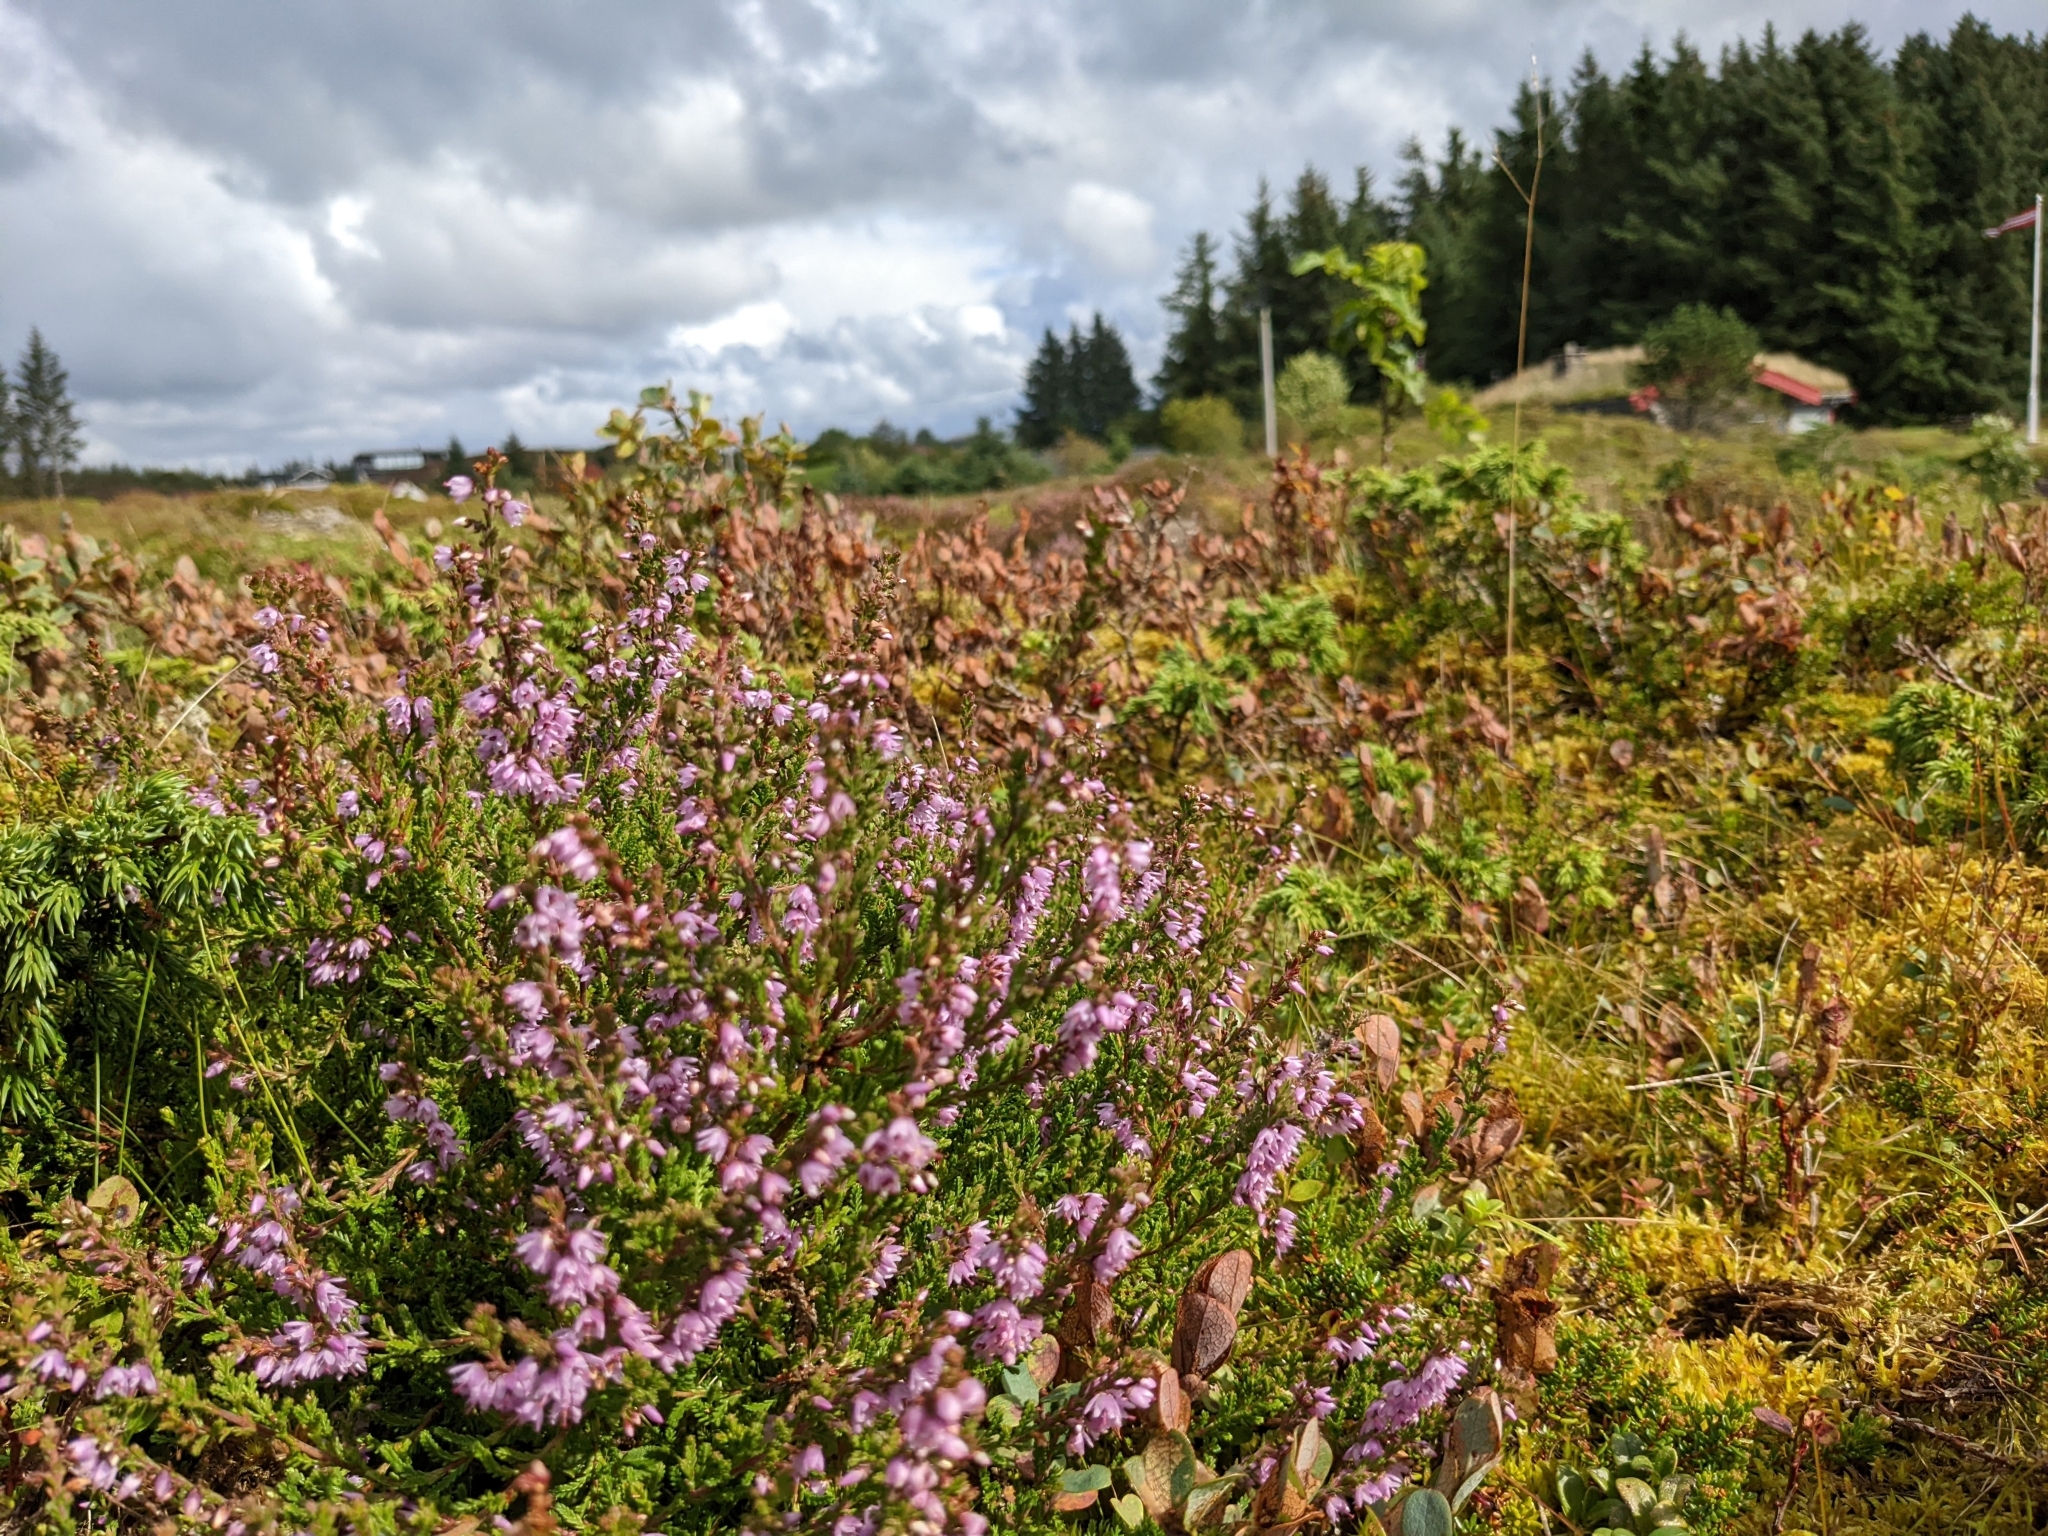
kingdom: Plantae
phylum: Tracheophyta
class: Magnoliopsida
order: Ericales
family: Ericaceae
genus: Calluna
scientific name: Calluna vulgaris
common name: Heather
